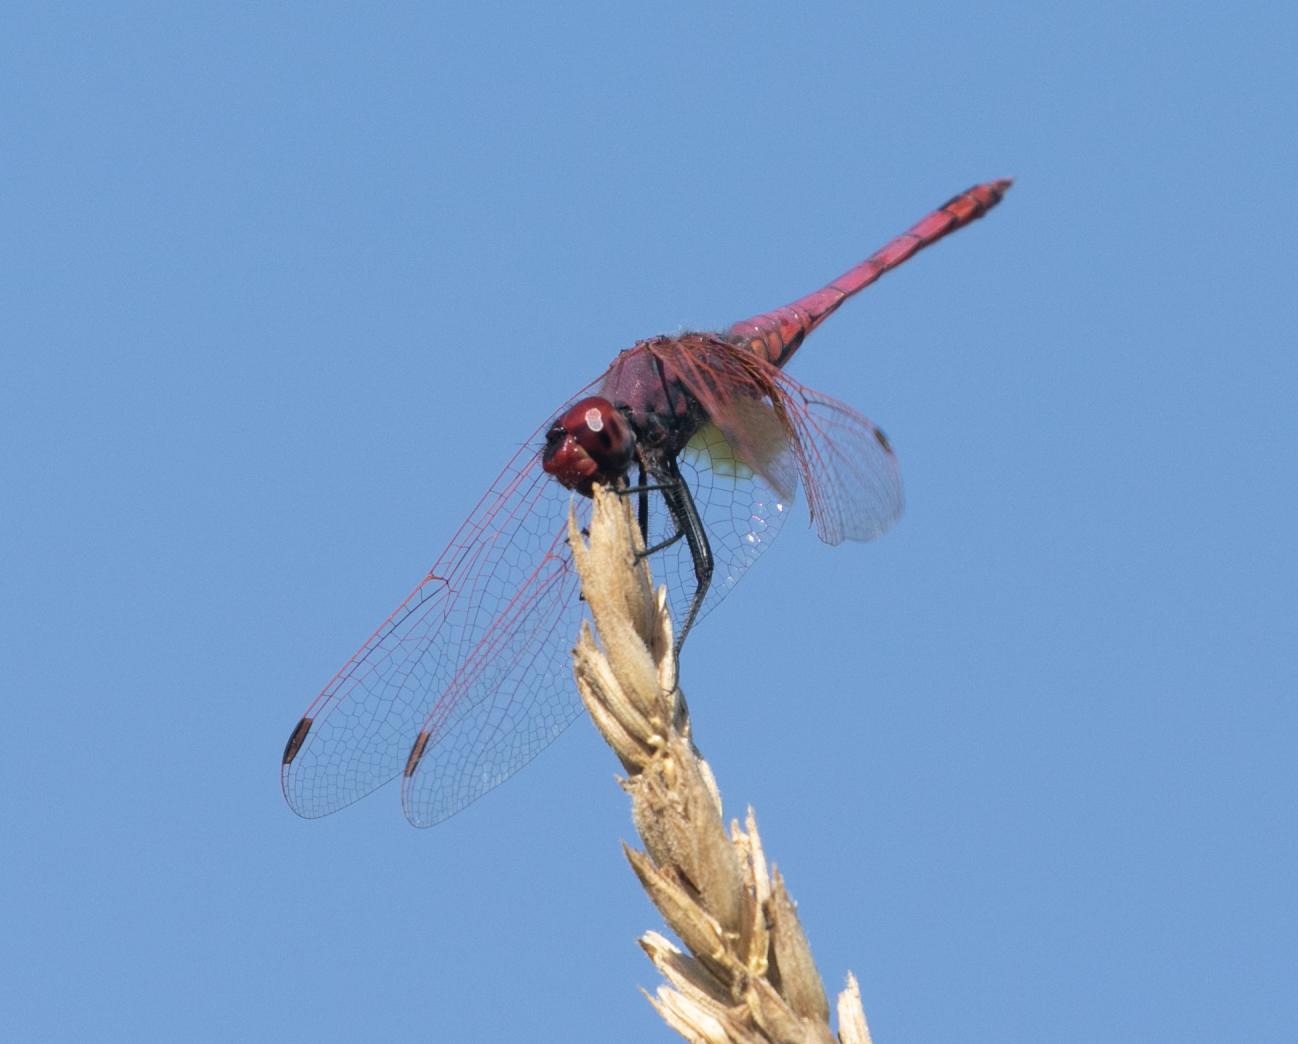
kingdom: Animalia
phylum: Arthropoda
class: Insecta
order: Odonata
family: Libellulidae
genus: Trithemis
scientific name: Trithemis annulata
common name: Violet dropwing
